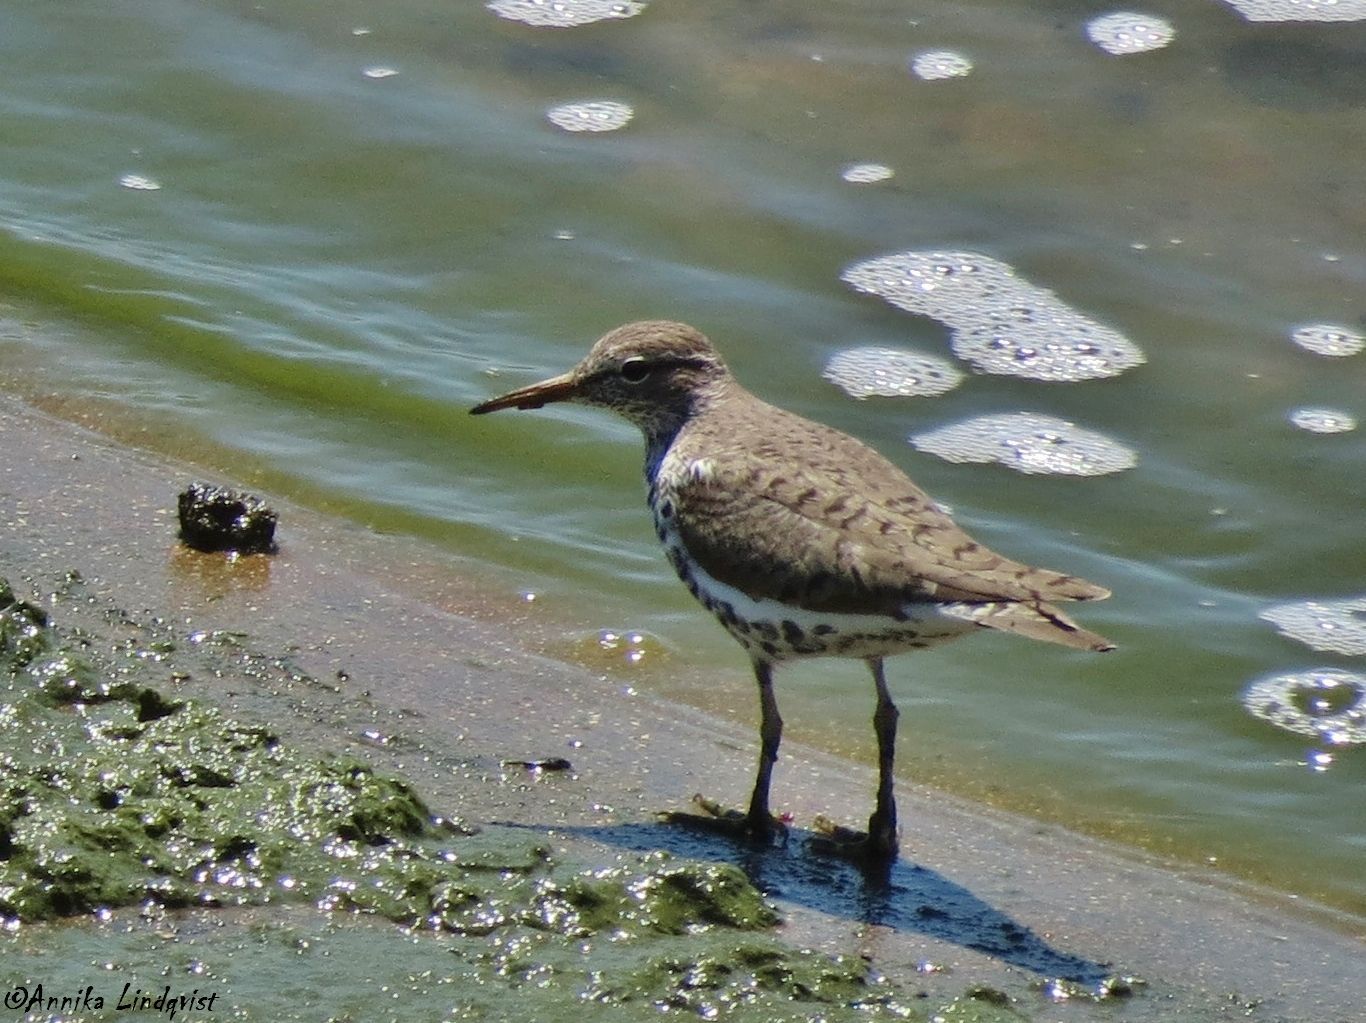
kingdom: Animalia
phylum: Chordata
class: Aves
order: Charadriiformes
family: Scolopacidae
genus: Actitis
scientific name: Actitis macularius
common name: Spotted sandpiper
